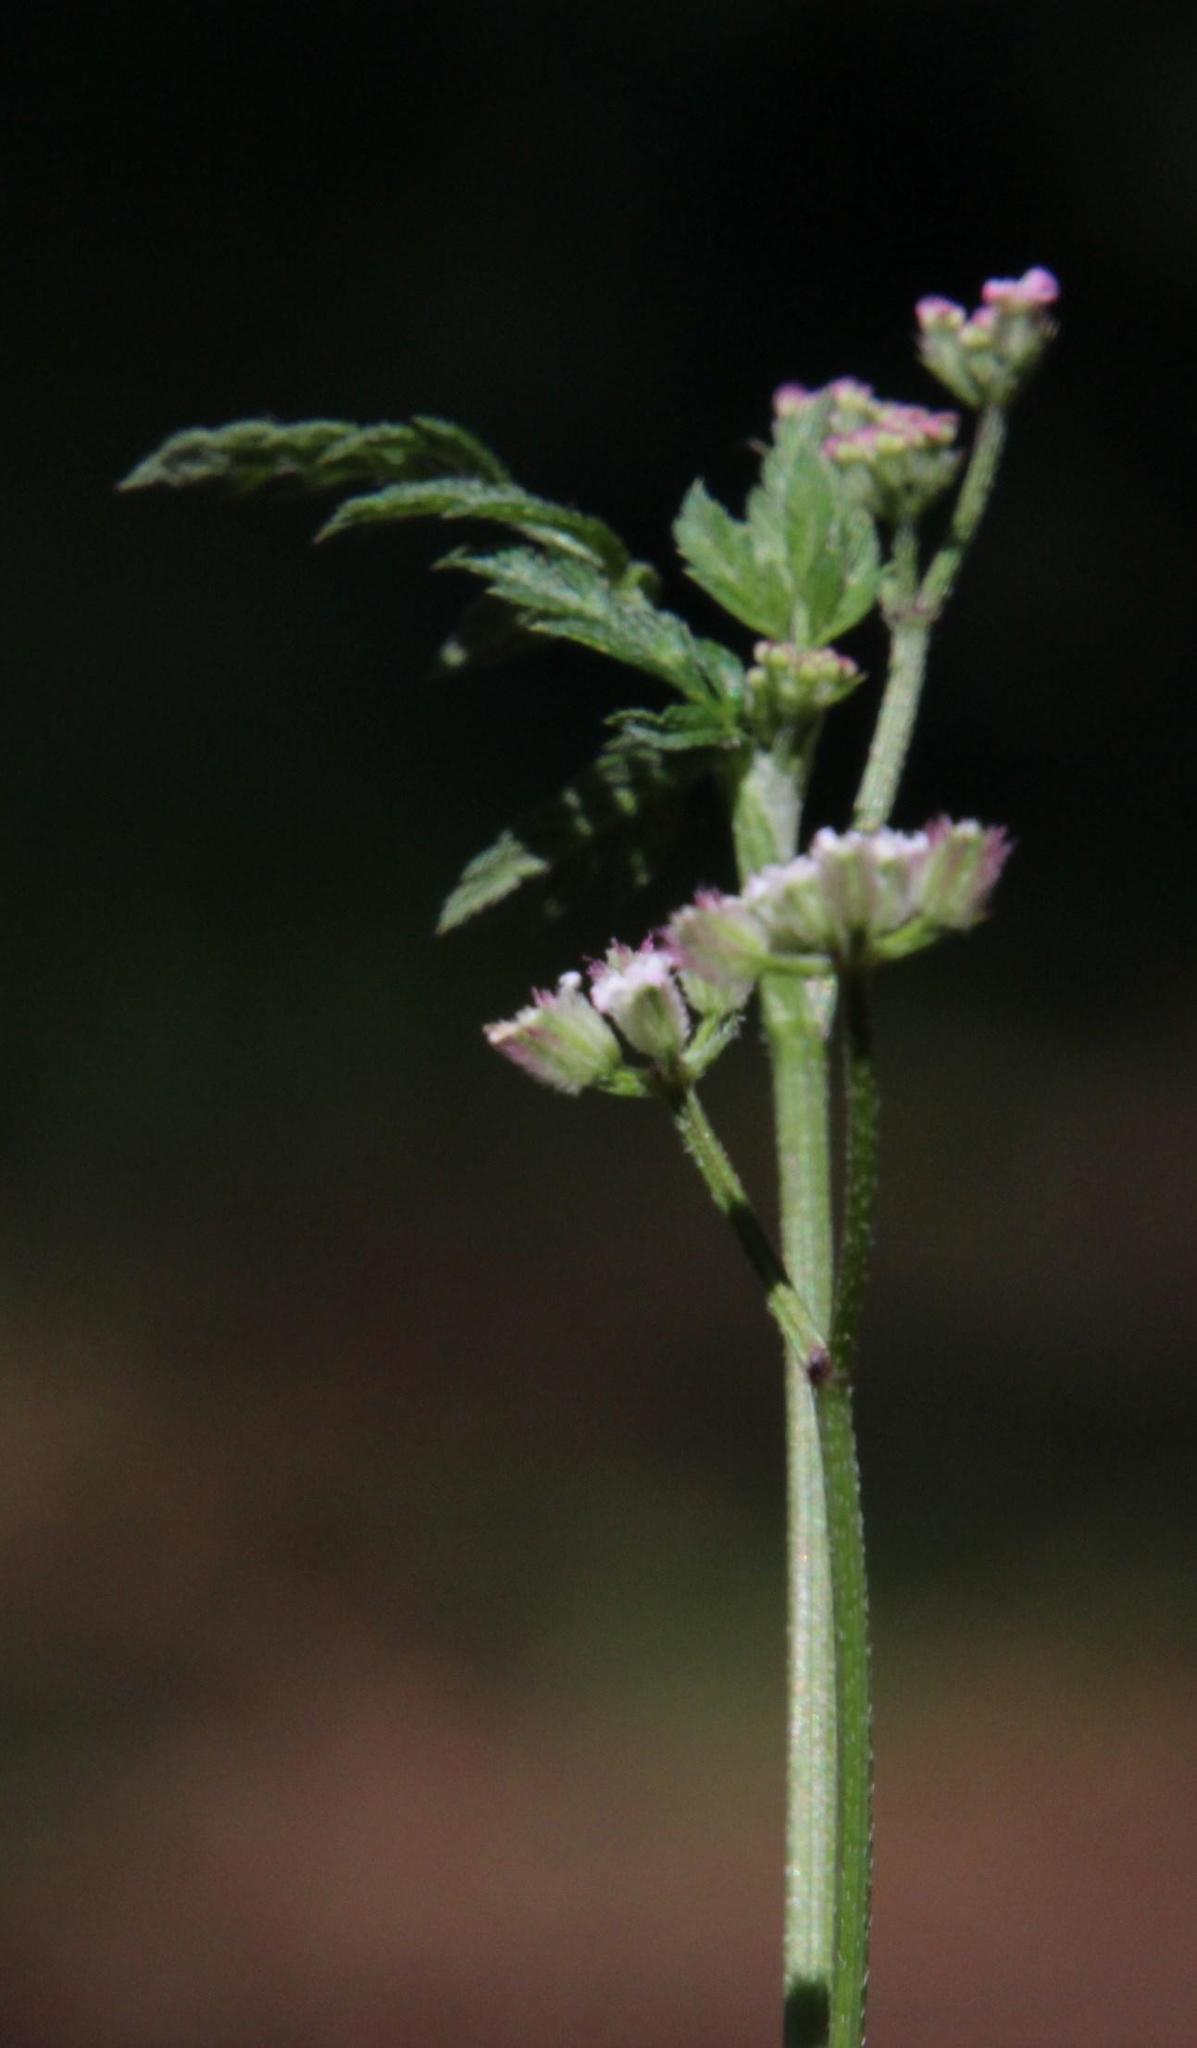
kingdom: Plantae
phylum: Tracheophyta
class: Magnoliopsida
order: Apiales
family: Apiaceae
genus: Torilis
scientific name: Torilis africana
